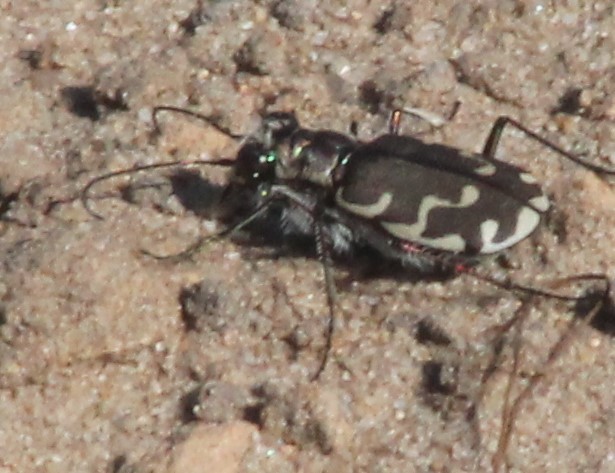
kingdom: Animalia
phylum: Arthropoda
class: Insecta
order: Coleoptera
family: Carabidae
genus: Cicindela
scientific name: Cicindela repanda
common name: Bronzed tiger beetle
